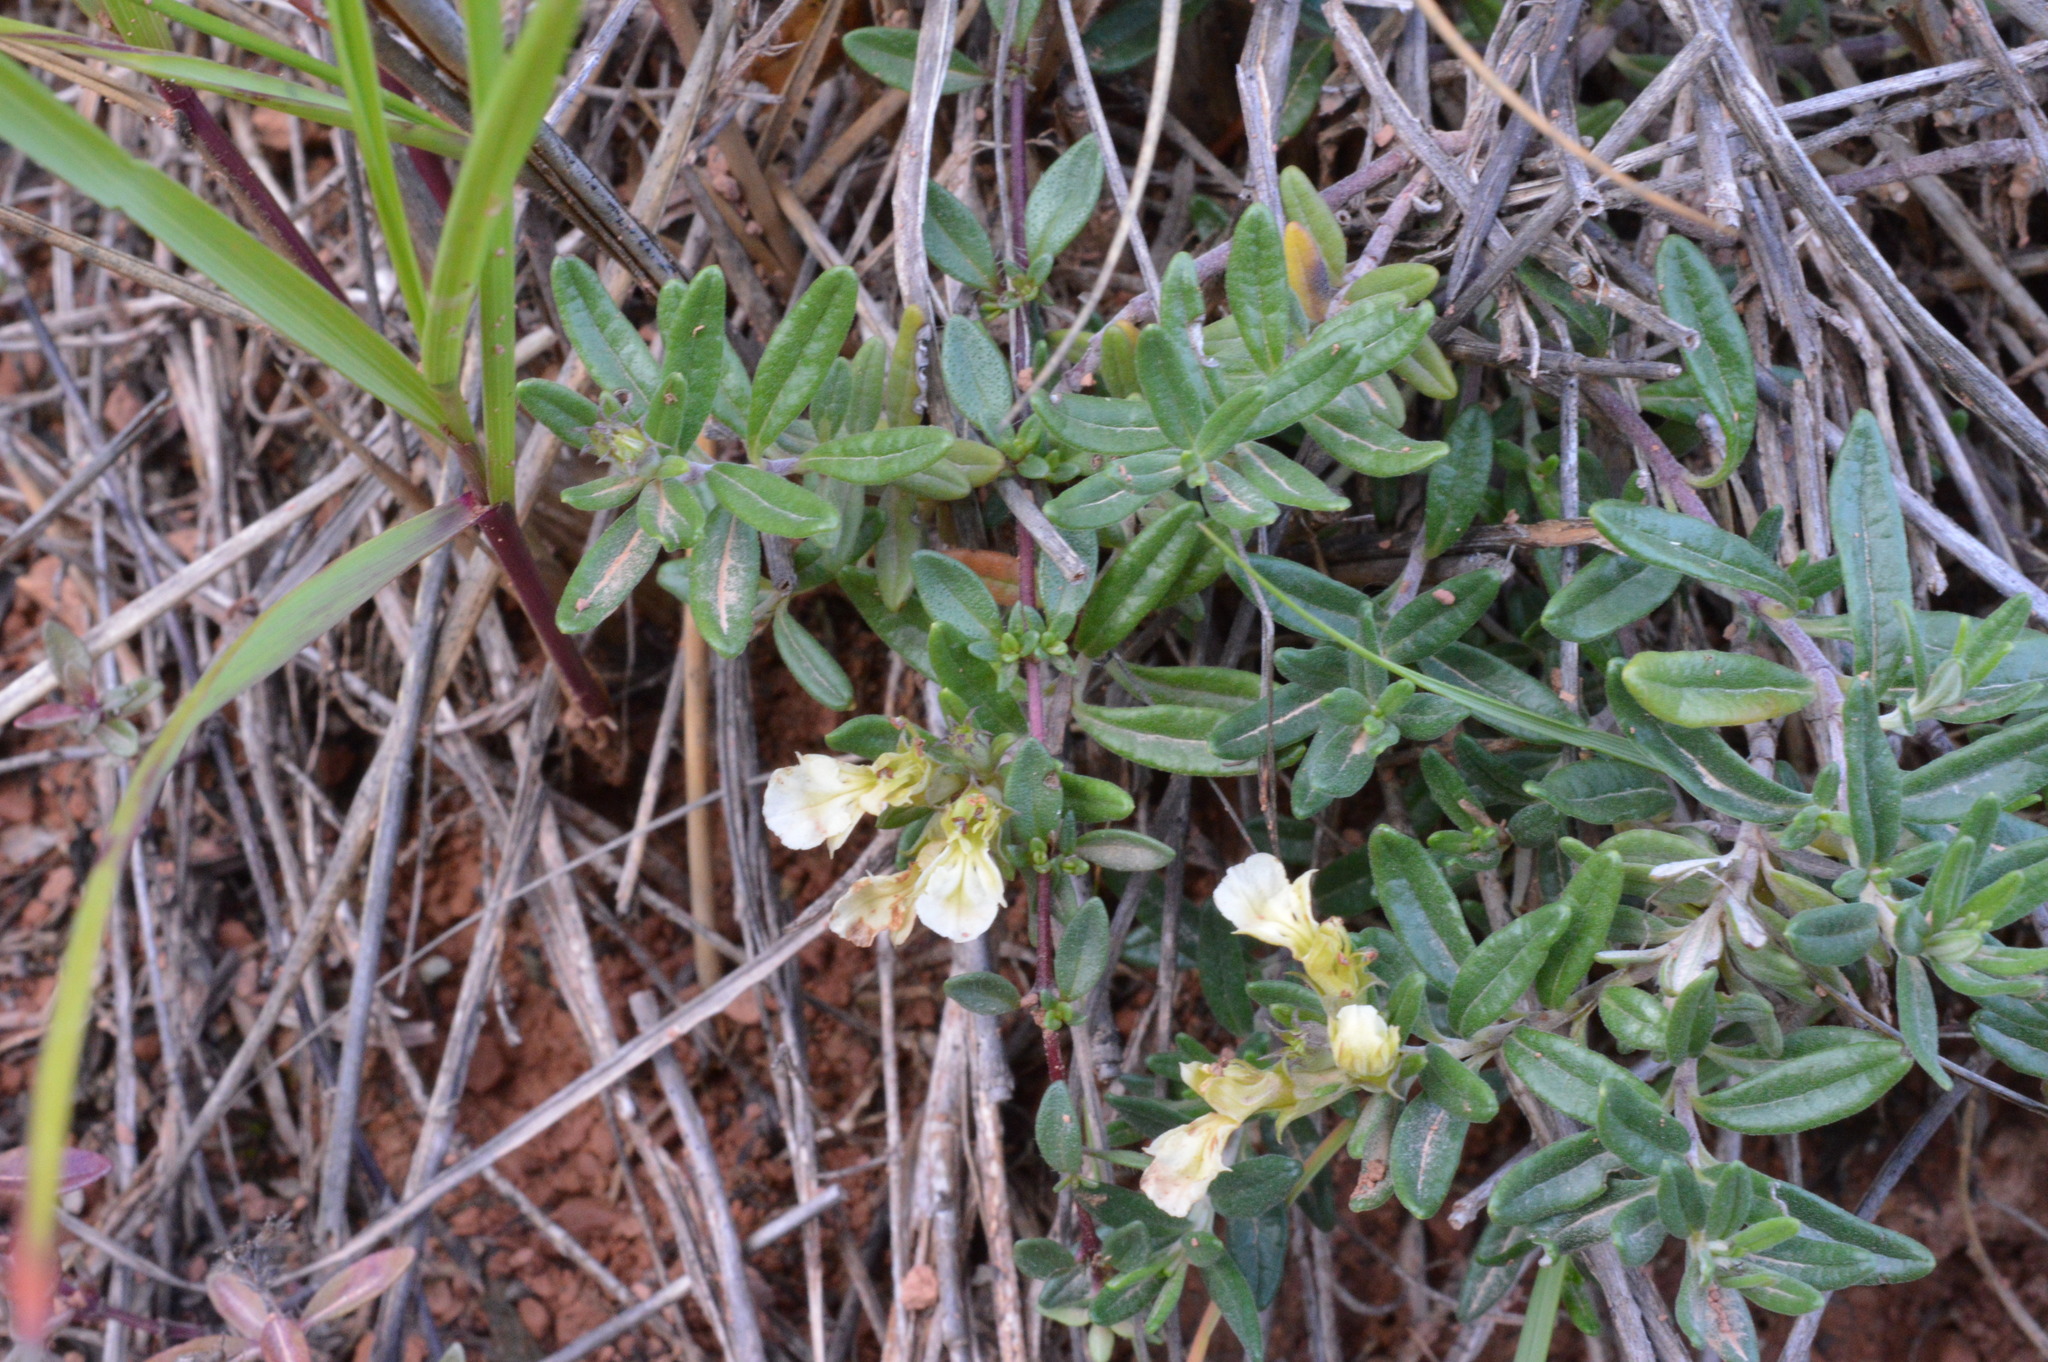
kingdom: Plantae
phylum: Tracheophyta
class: Magnoliopsida
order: Lamiales
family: Lamiaceae
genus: Teucrium
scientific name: Teucrium montanum
